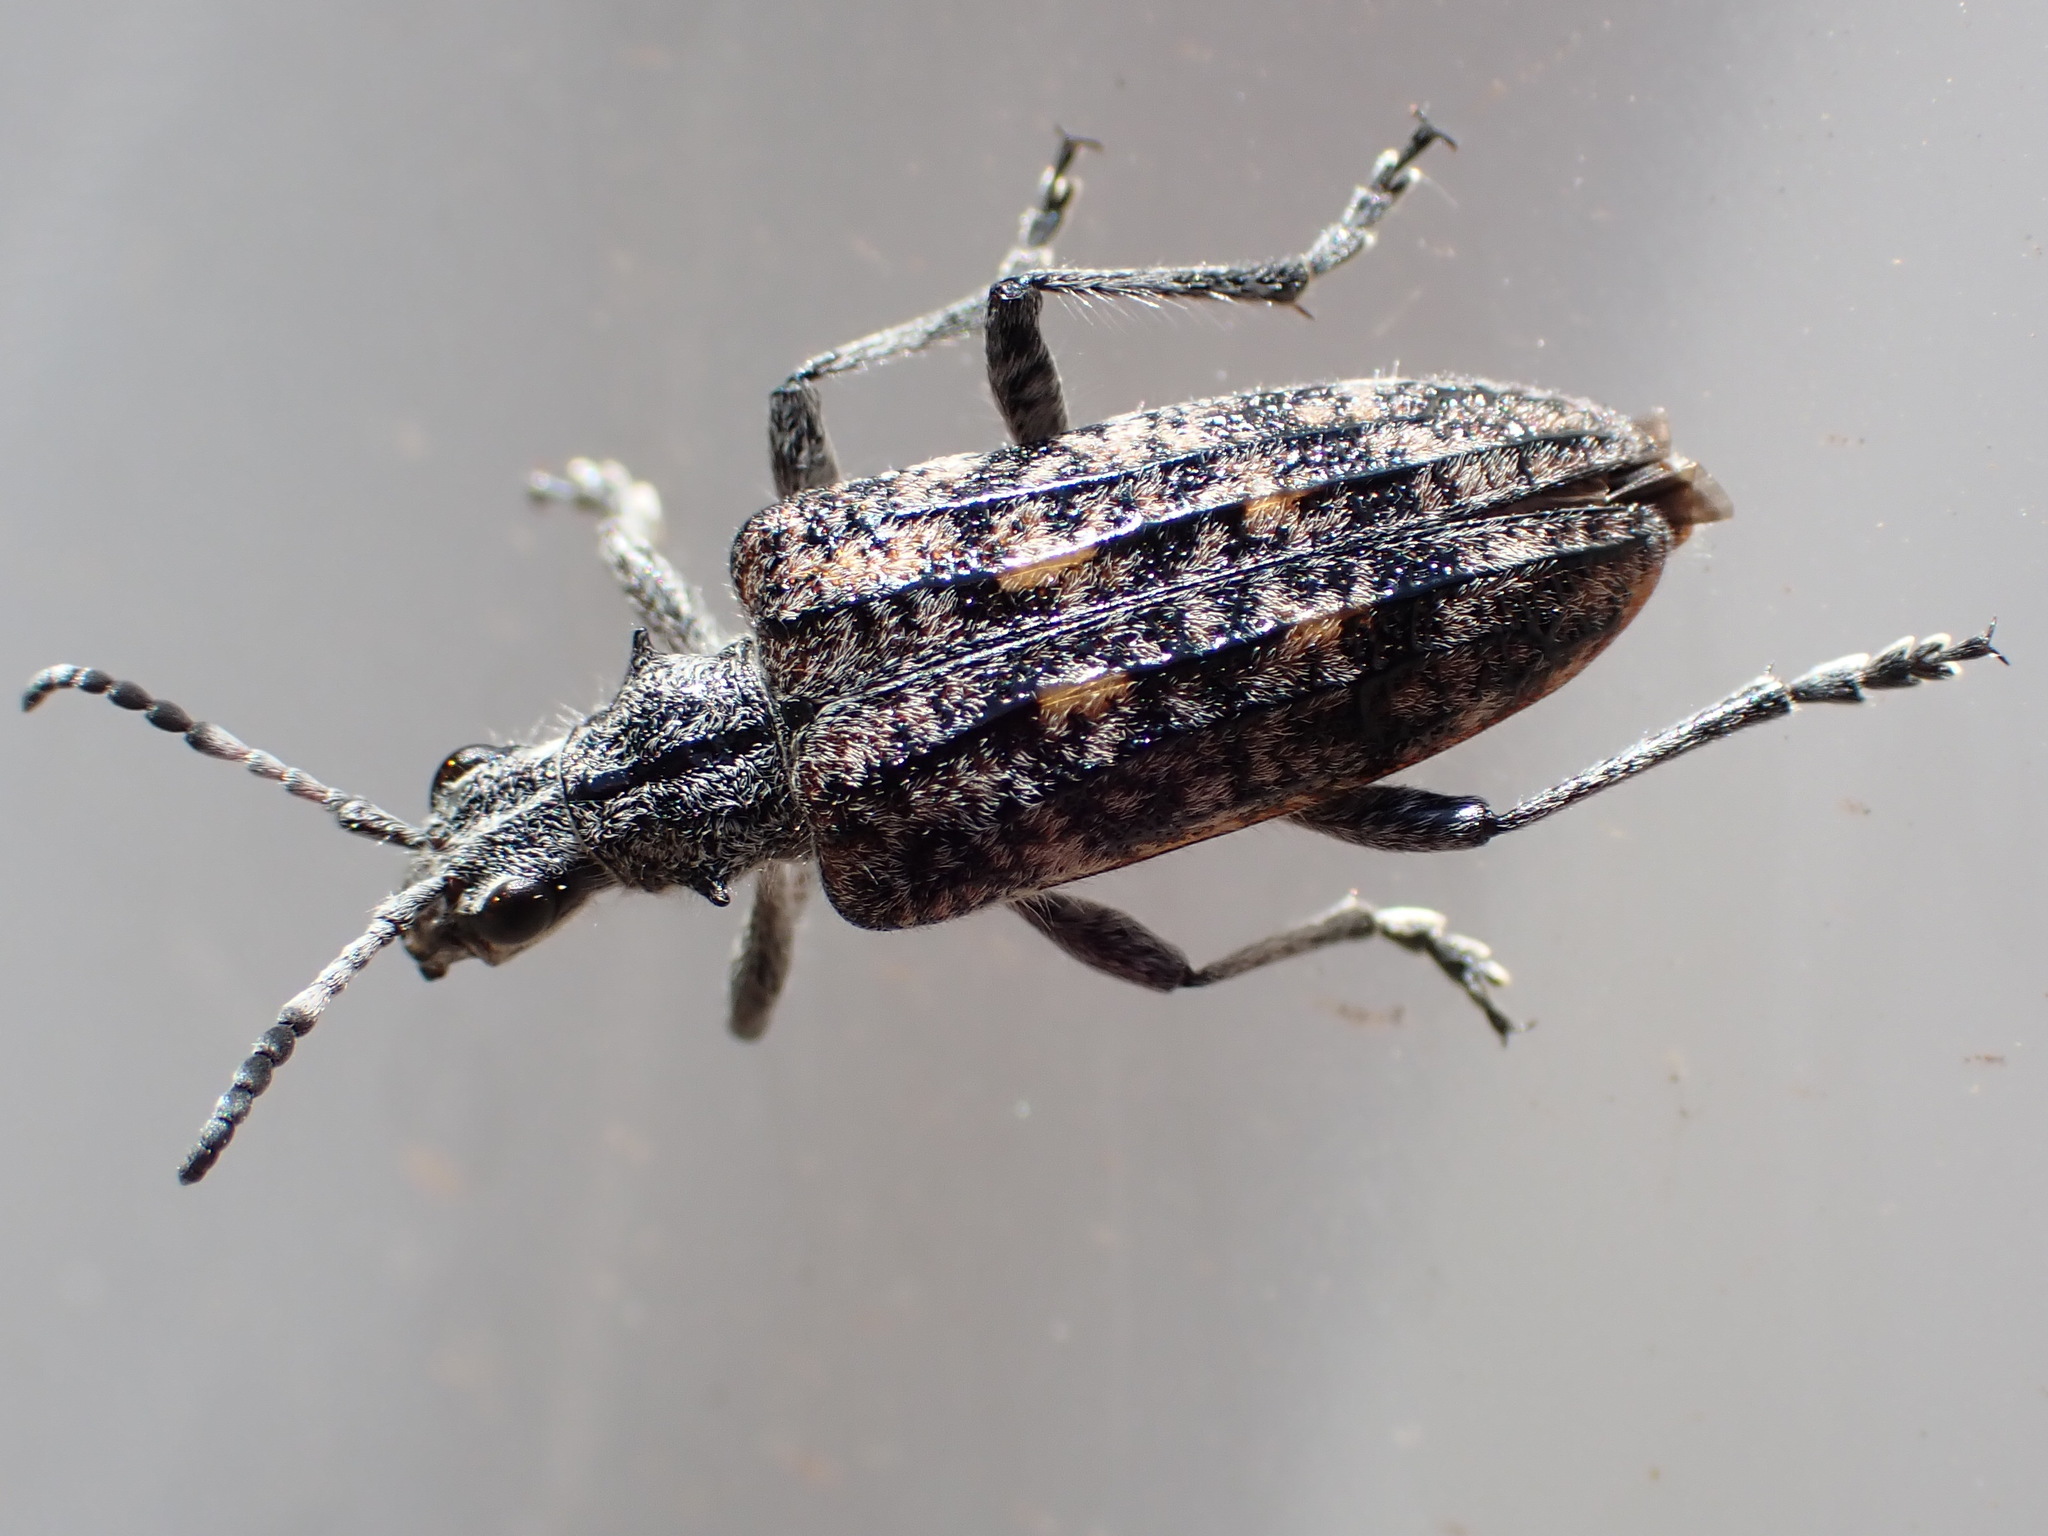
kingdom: Animalia
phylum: Arthropoda
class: Insecta
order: Coleoptera
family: Cerambycidae
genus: Rhagium
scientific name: Rhagium inquisitor
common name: Ribbed pine borer
